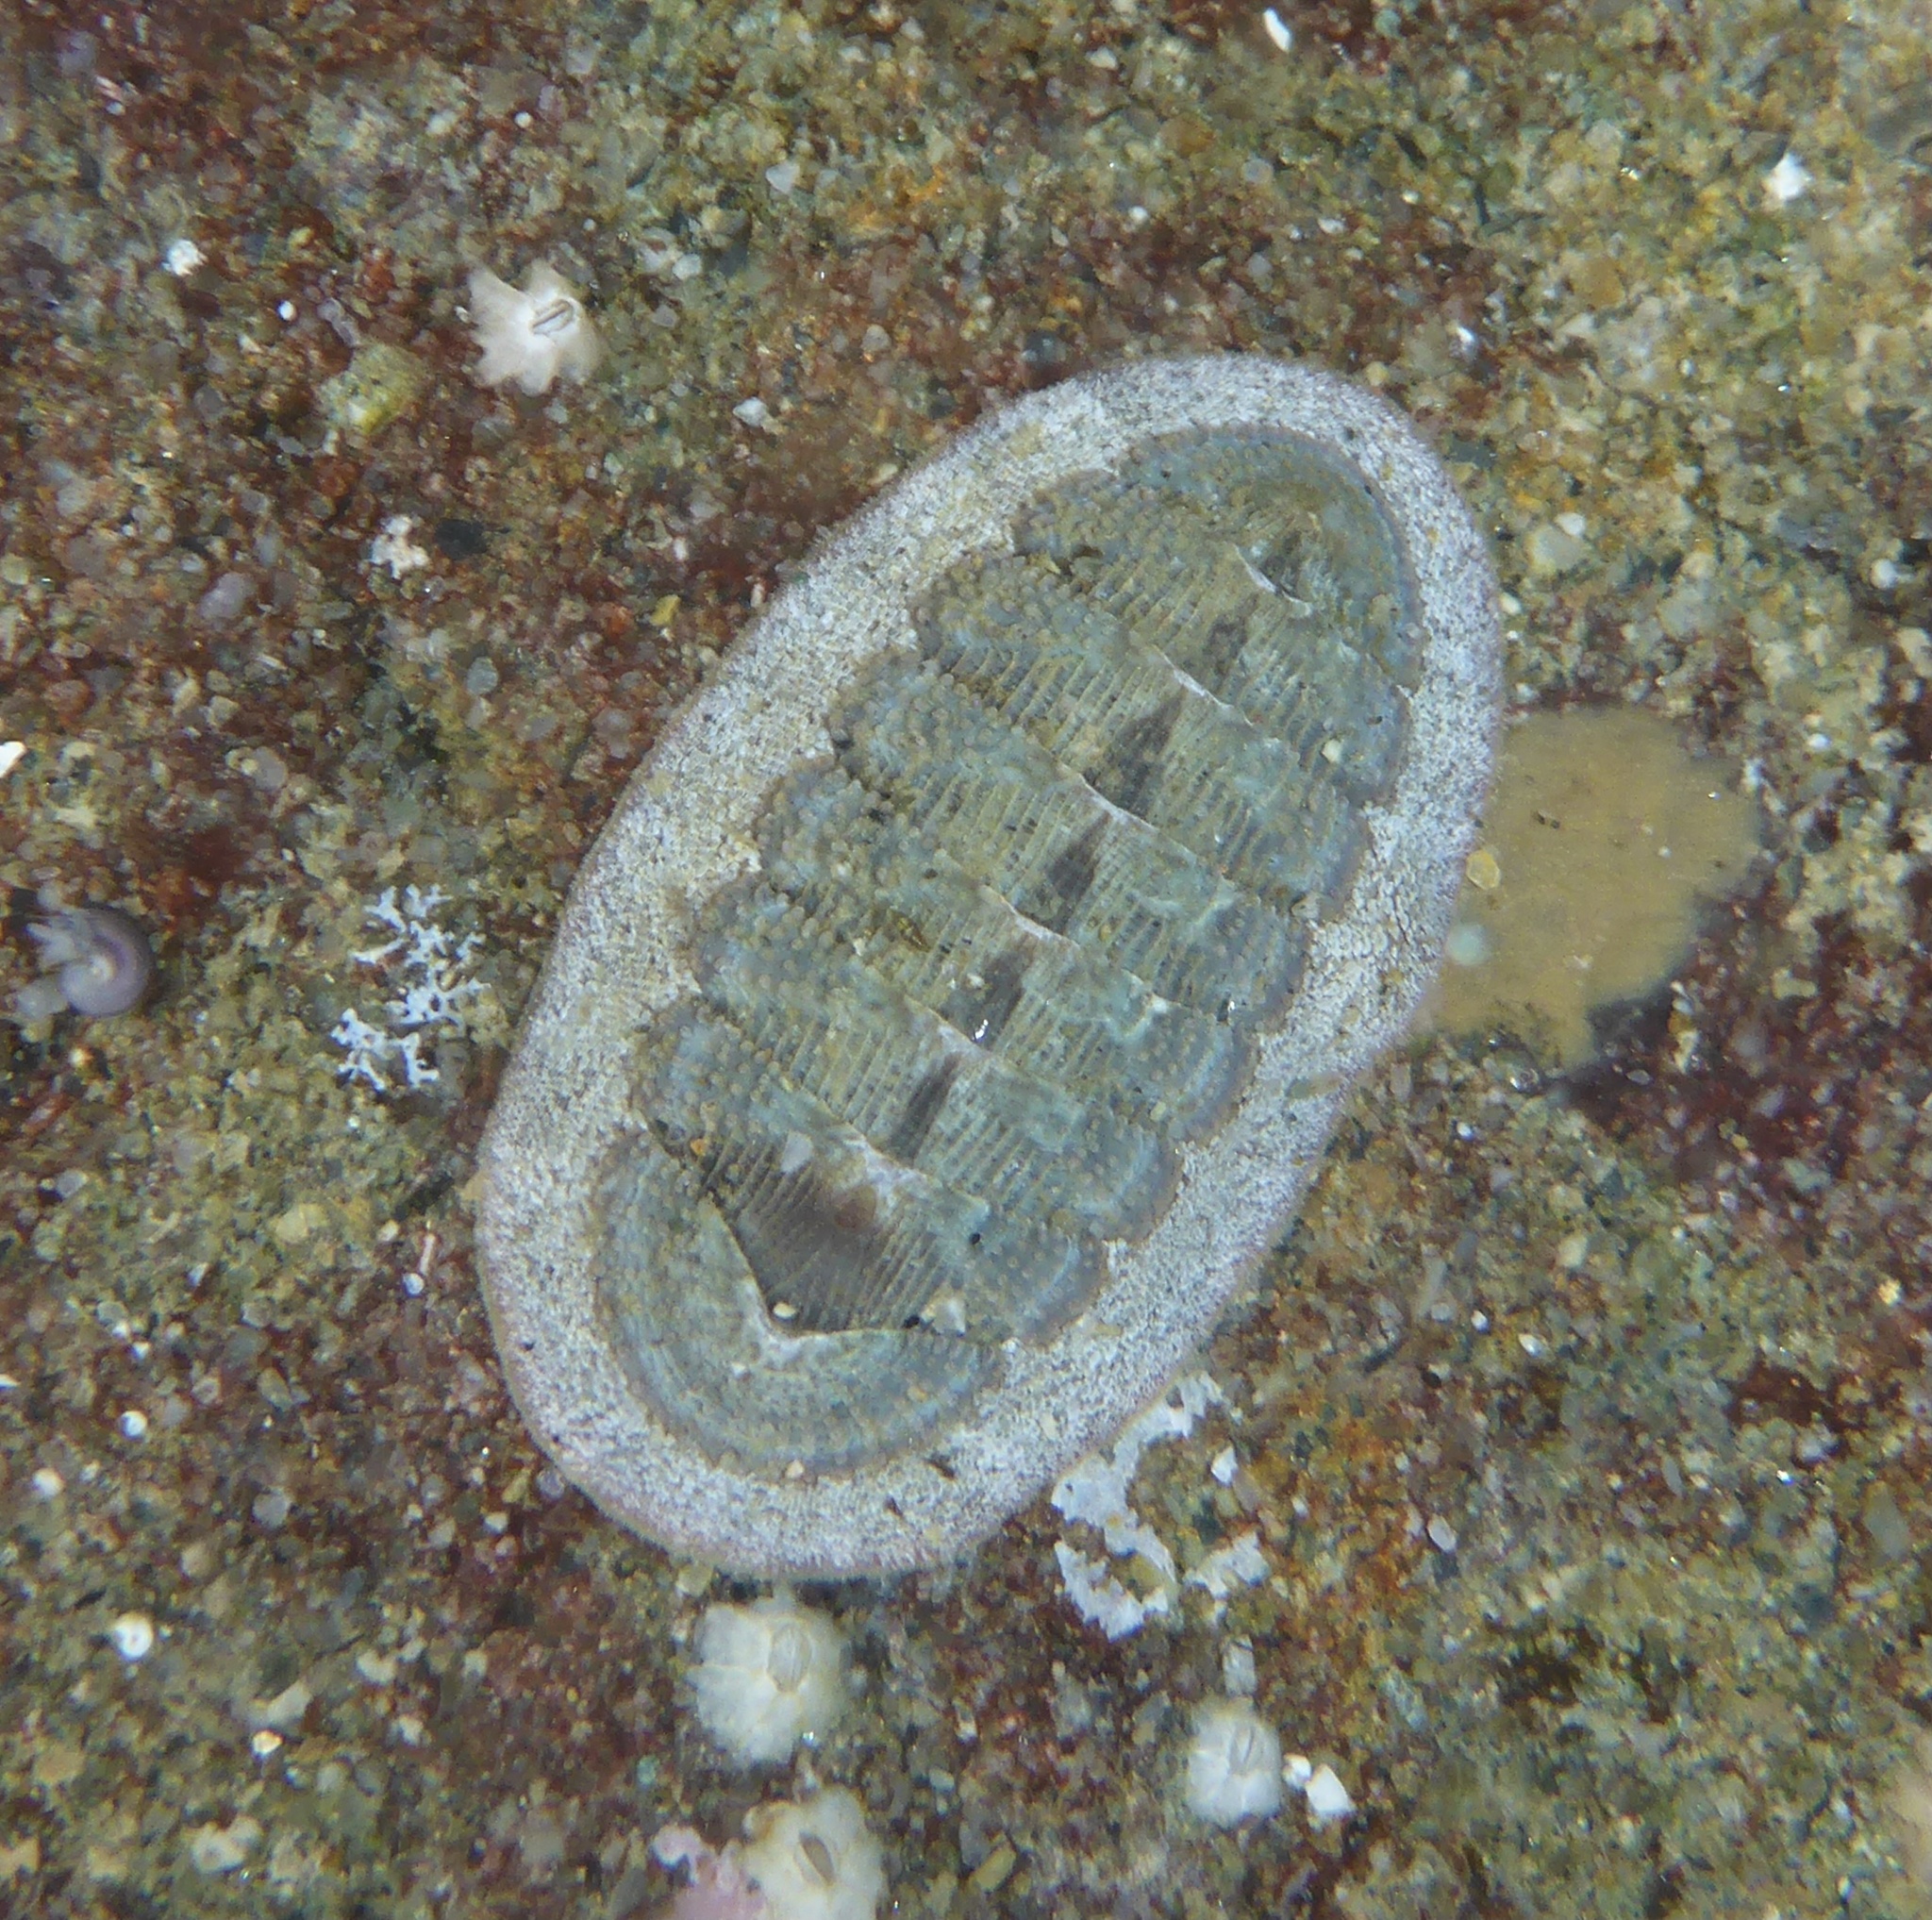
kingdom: Animalia
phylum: Mollusca
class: Polyplacophora
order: Chitonida
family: Ischnochitonidae
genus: Lepidozona
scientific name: Lepidozona cooperi
